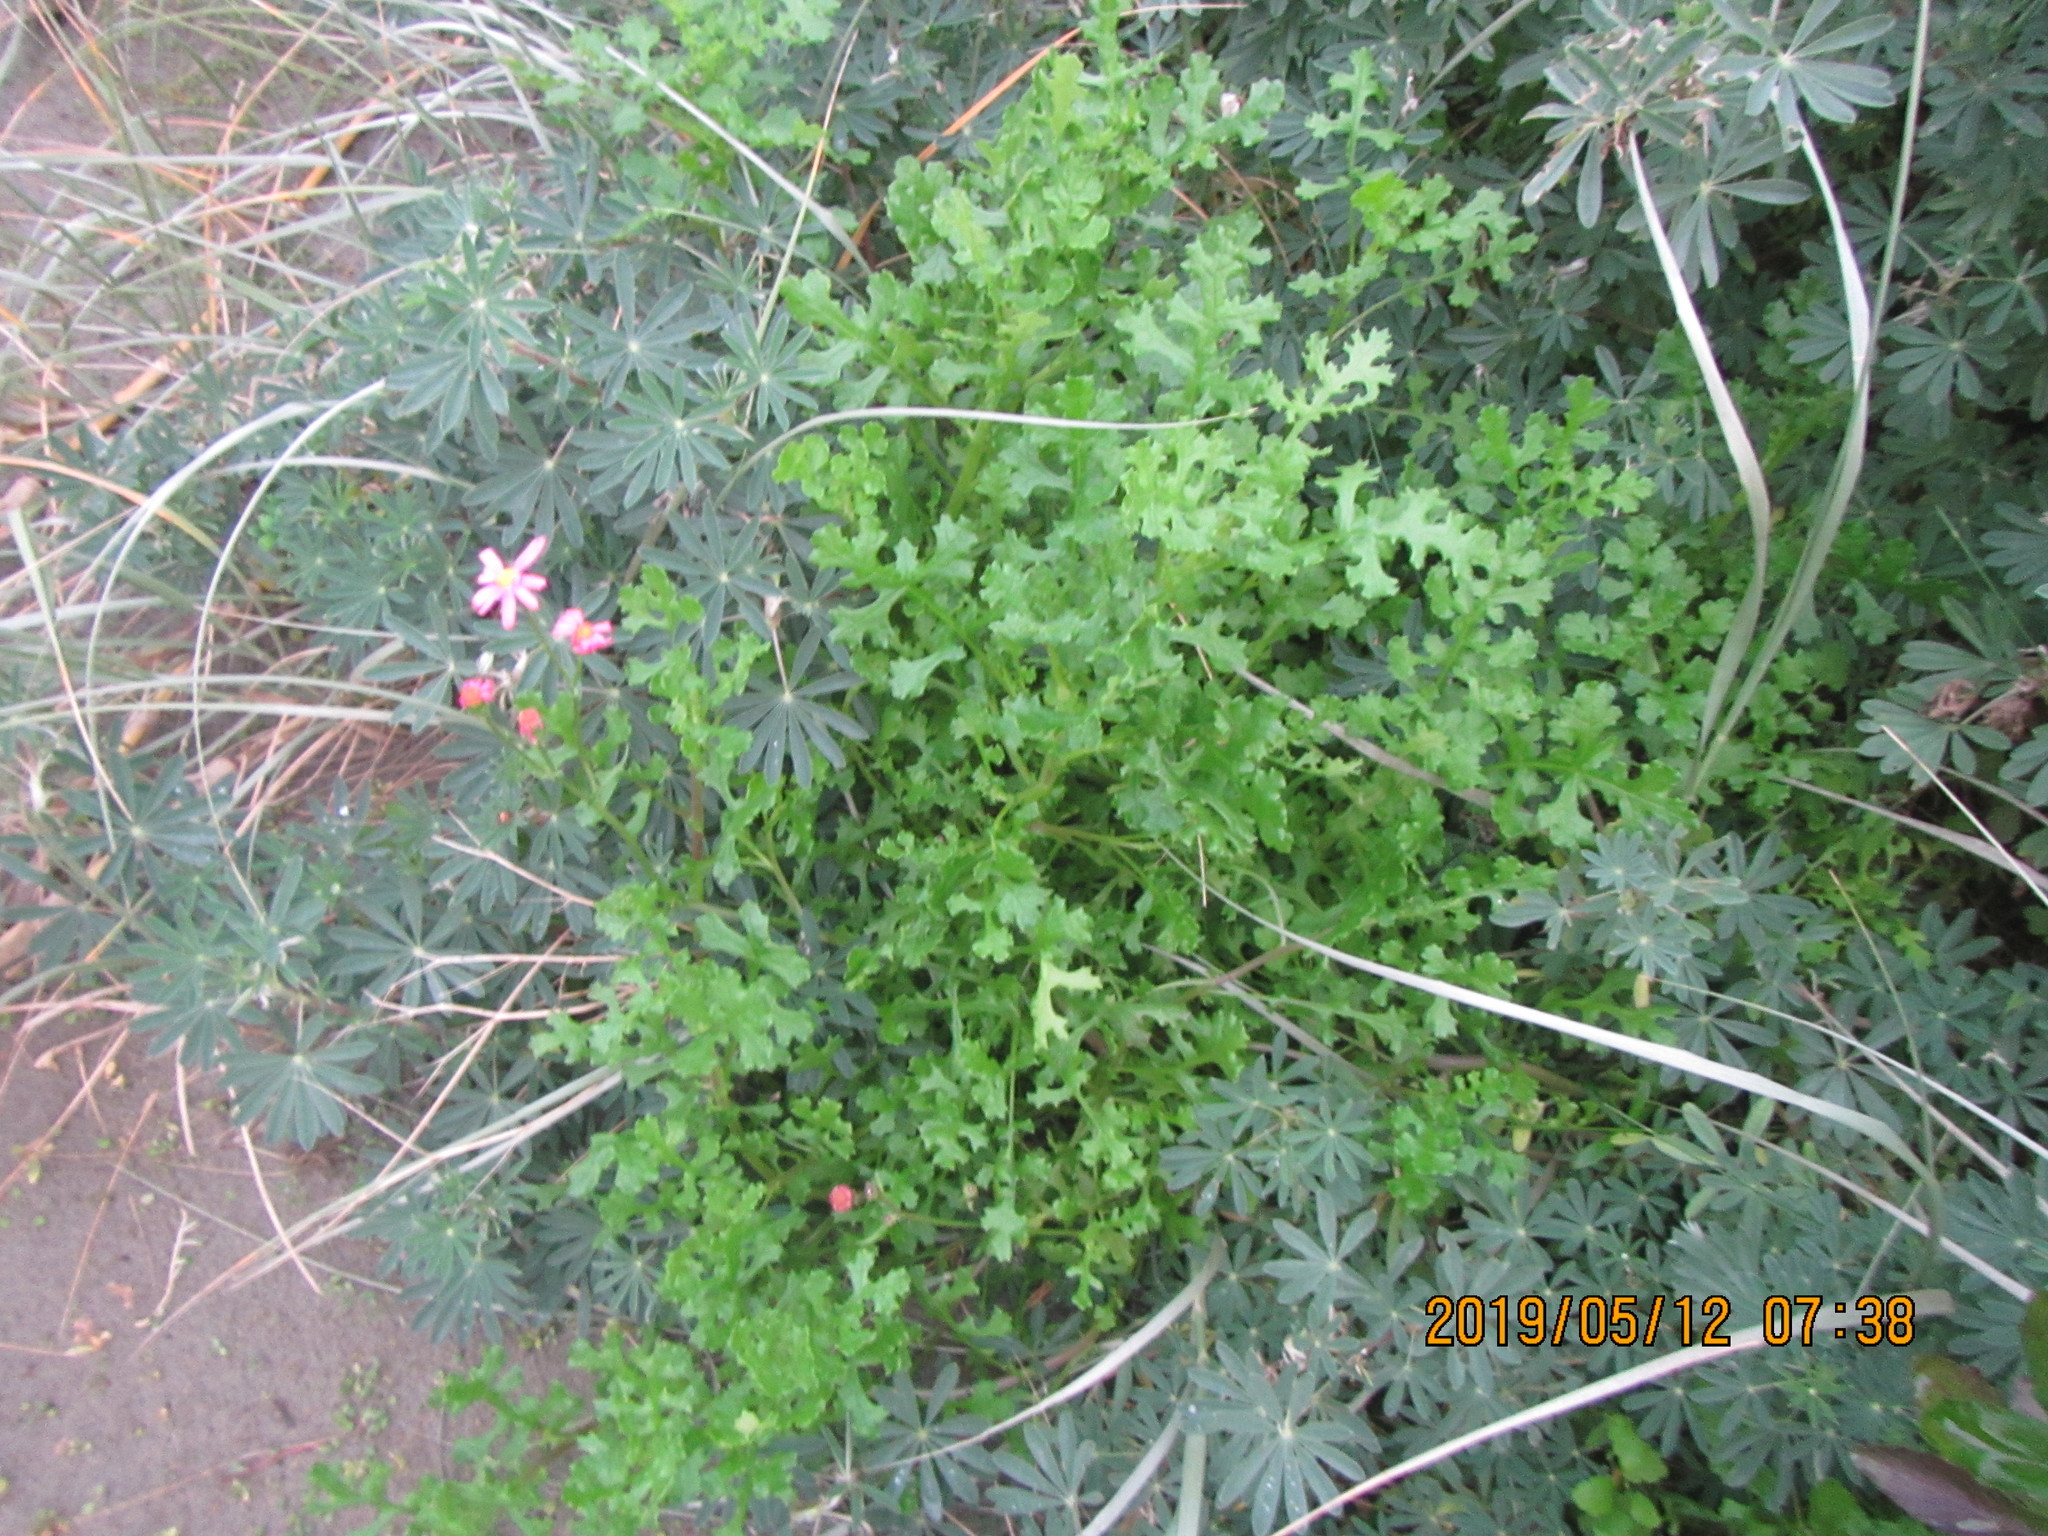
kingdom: Plantae
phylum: Tracheophyta
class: Magnoliopsida
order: Asterales
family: Asteraceae
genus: Senecio
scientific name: Senecio elegans
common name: Purple groundsel
